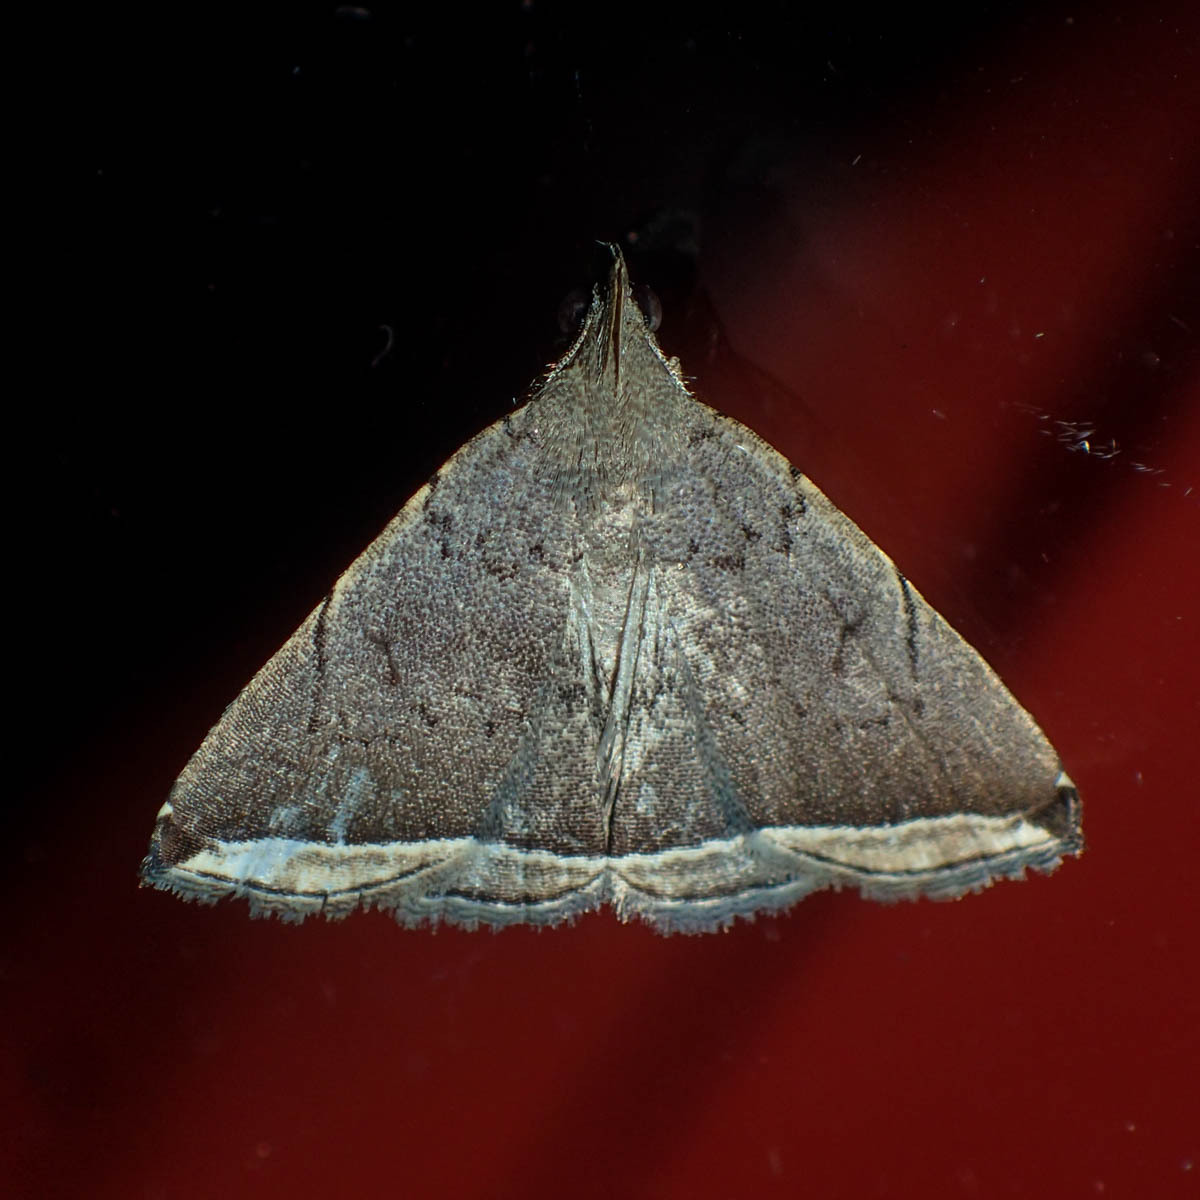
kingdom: Animalia
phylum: Arthropoda
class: Insecta
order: Lepidoptera
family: Erebidae
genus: Lysimelia
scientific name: Lysimelia alstoni
